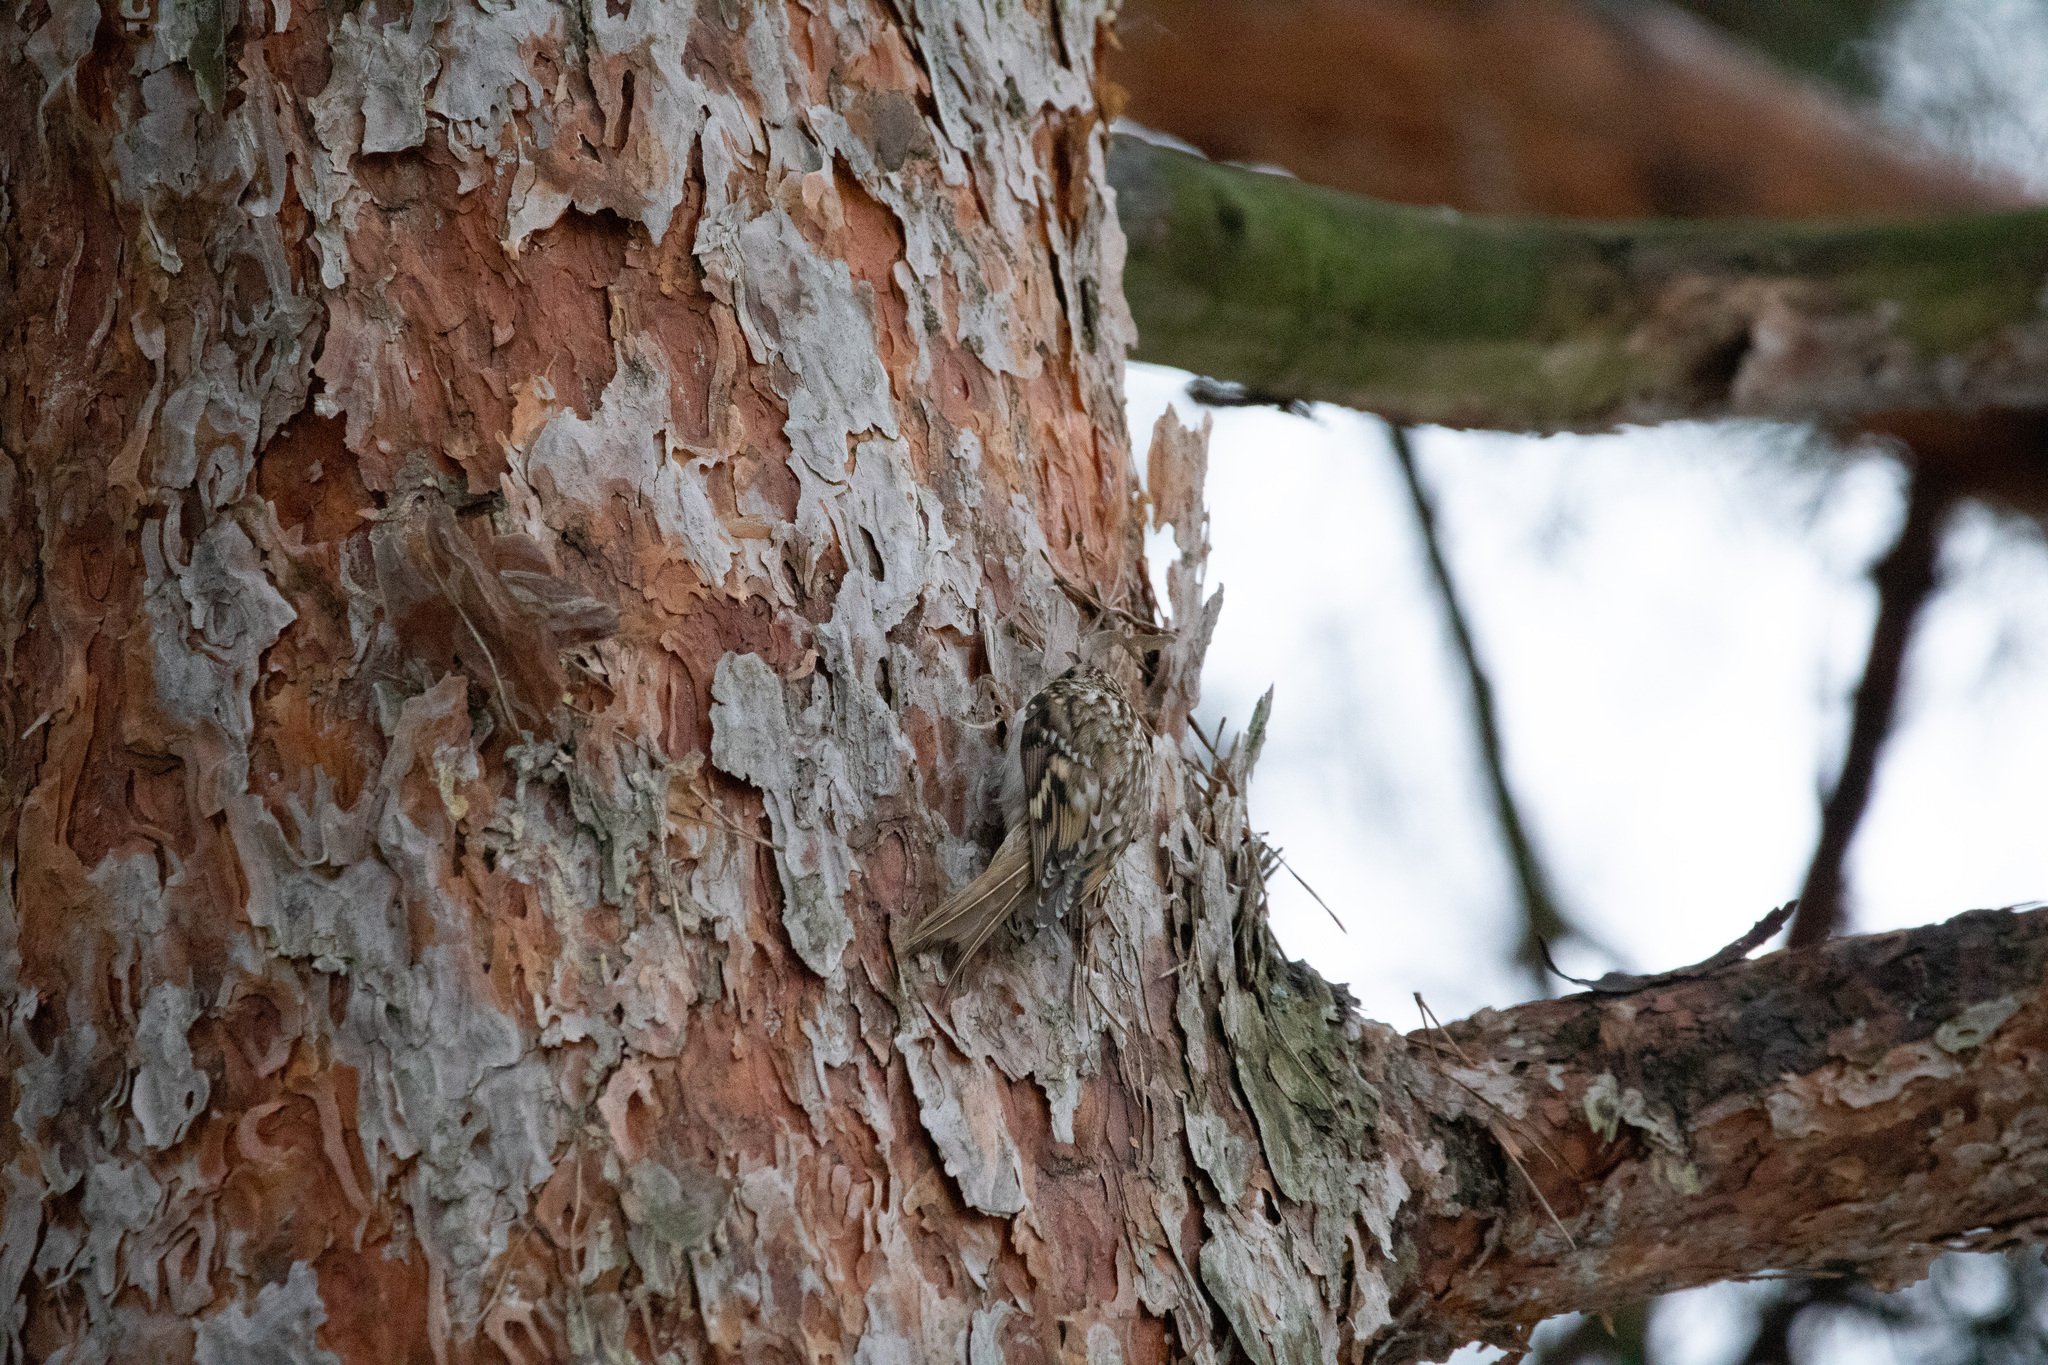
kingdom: Animalia
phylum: Chordata
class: Aves
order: Passeriformes
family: Certhiidae
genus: Certhia
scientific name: Certhia familiaris
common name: Eurasian treecreeper
